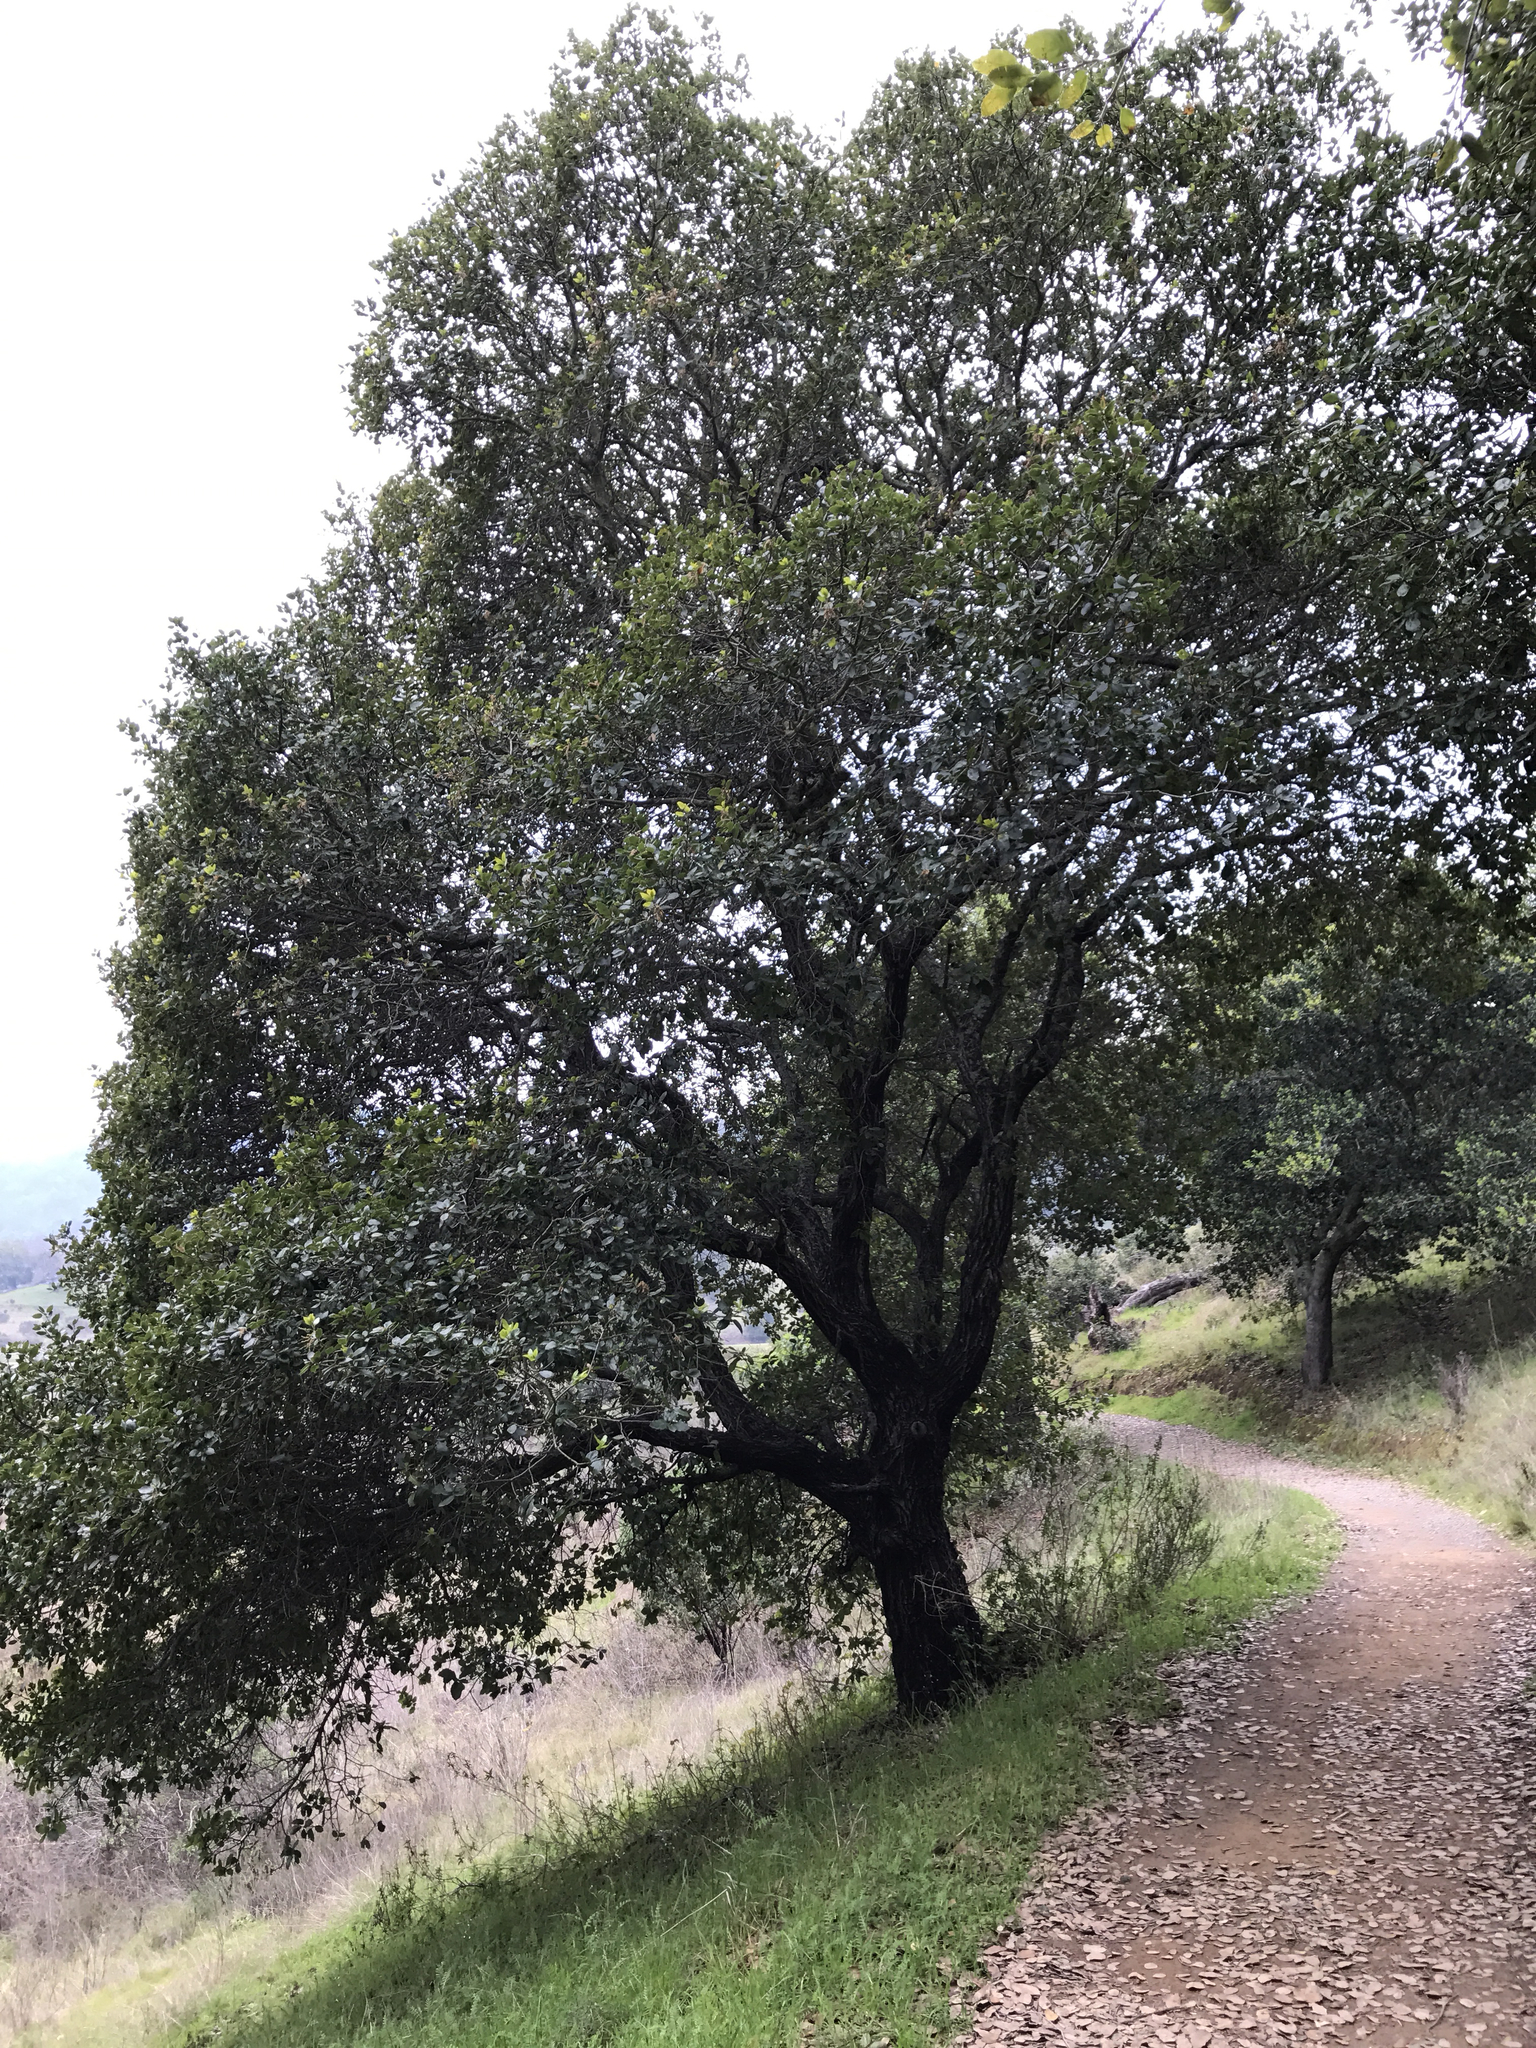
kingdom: Plantae
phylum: Tracheophyta
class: Magnoliopsida
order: Fagales
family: Fagaceae
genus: Quercus
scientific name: Quercus agrifolia
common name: California live oak
